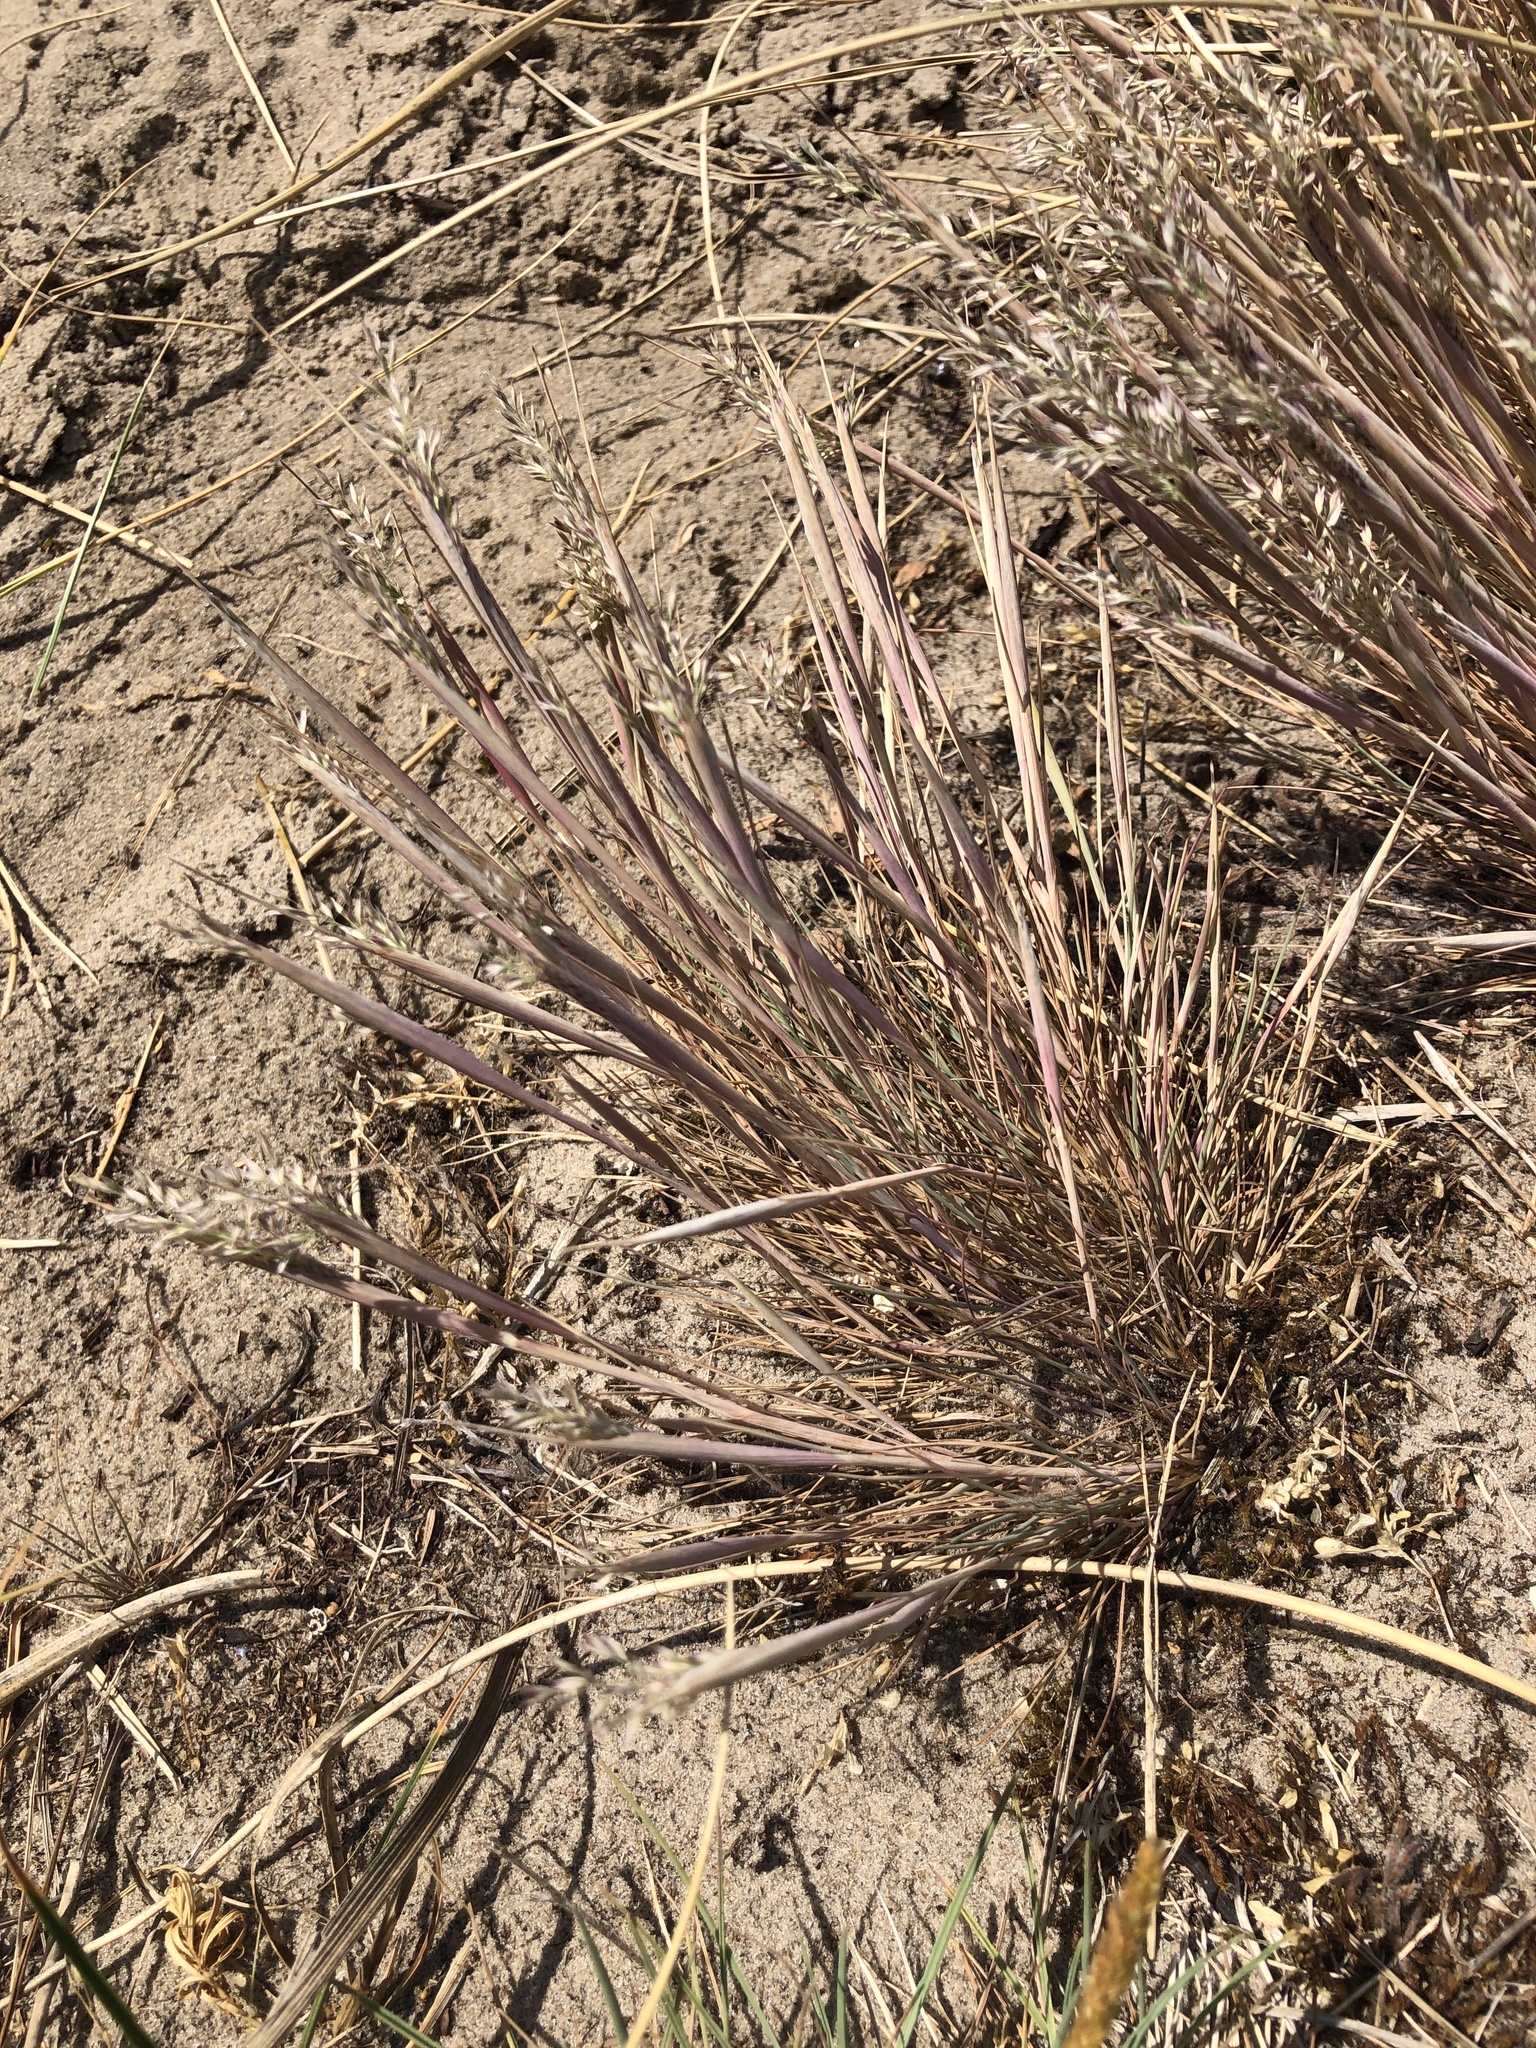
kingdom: Plantae
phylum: Tracheophyta
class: Liliopsida
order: Poales
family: Poaceae
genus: Corynephorus
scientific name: Corynephorus canescens
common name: Grey hair-grass
